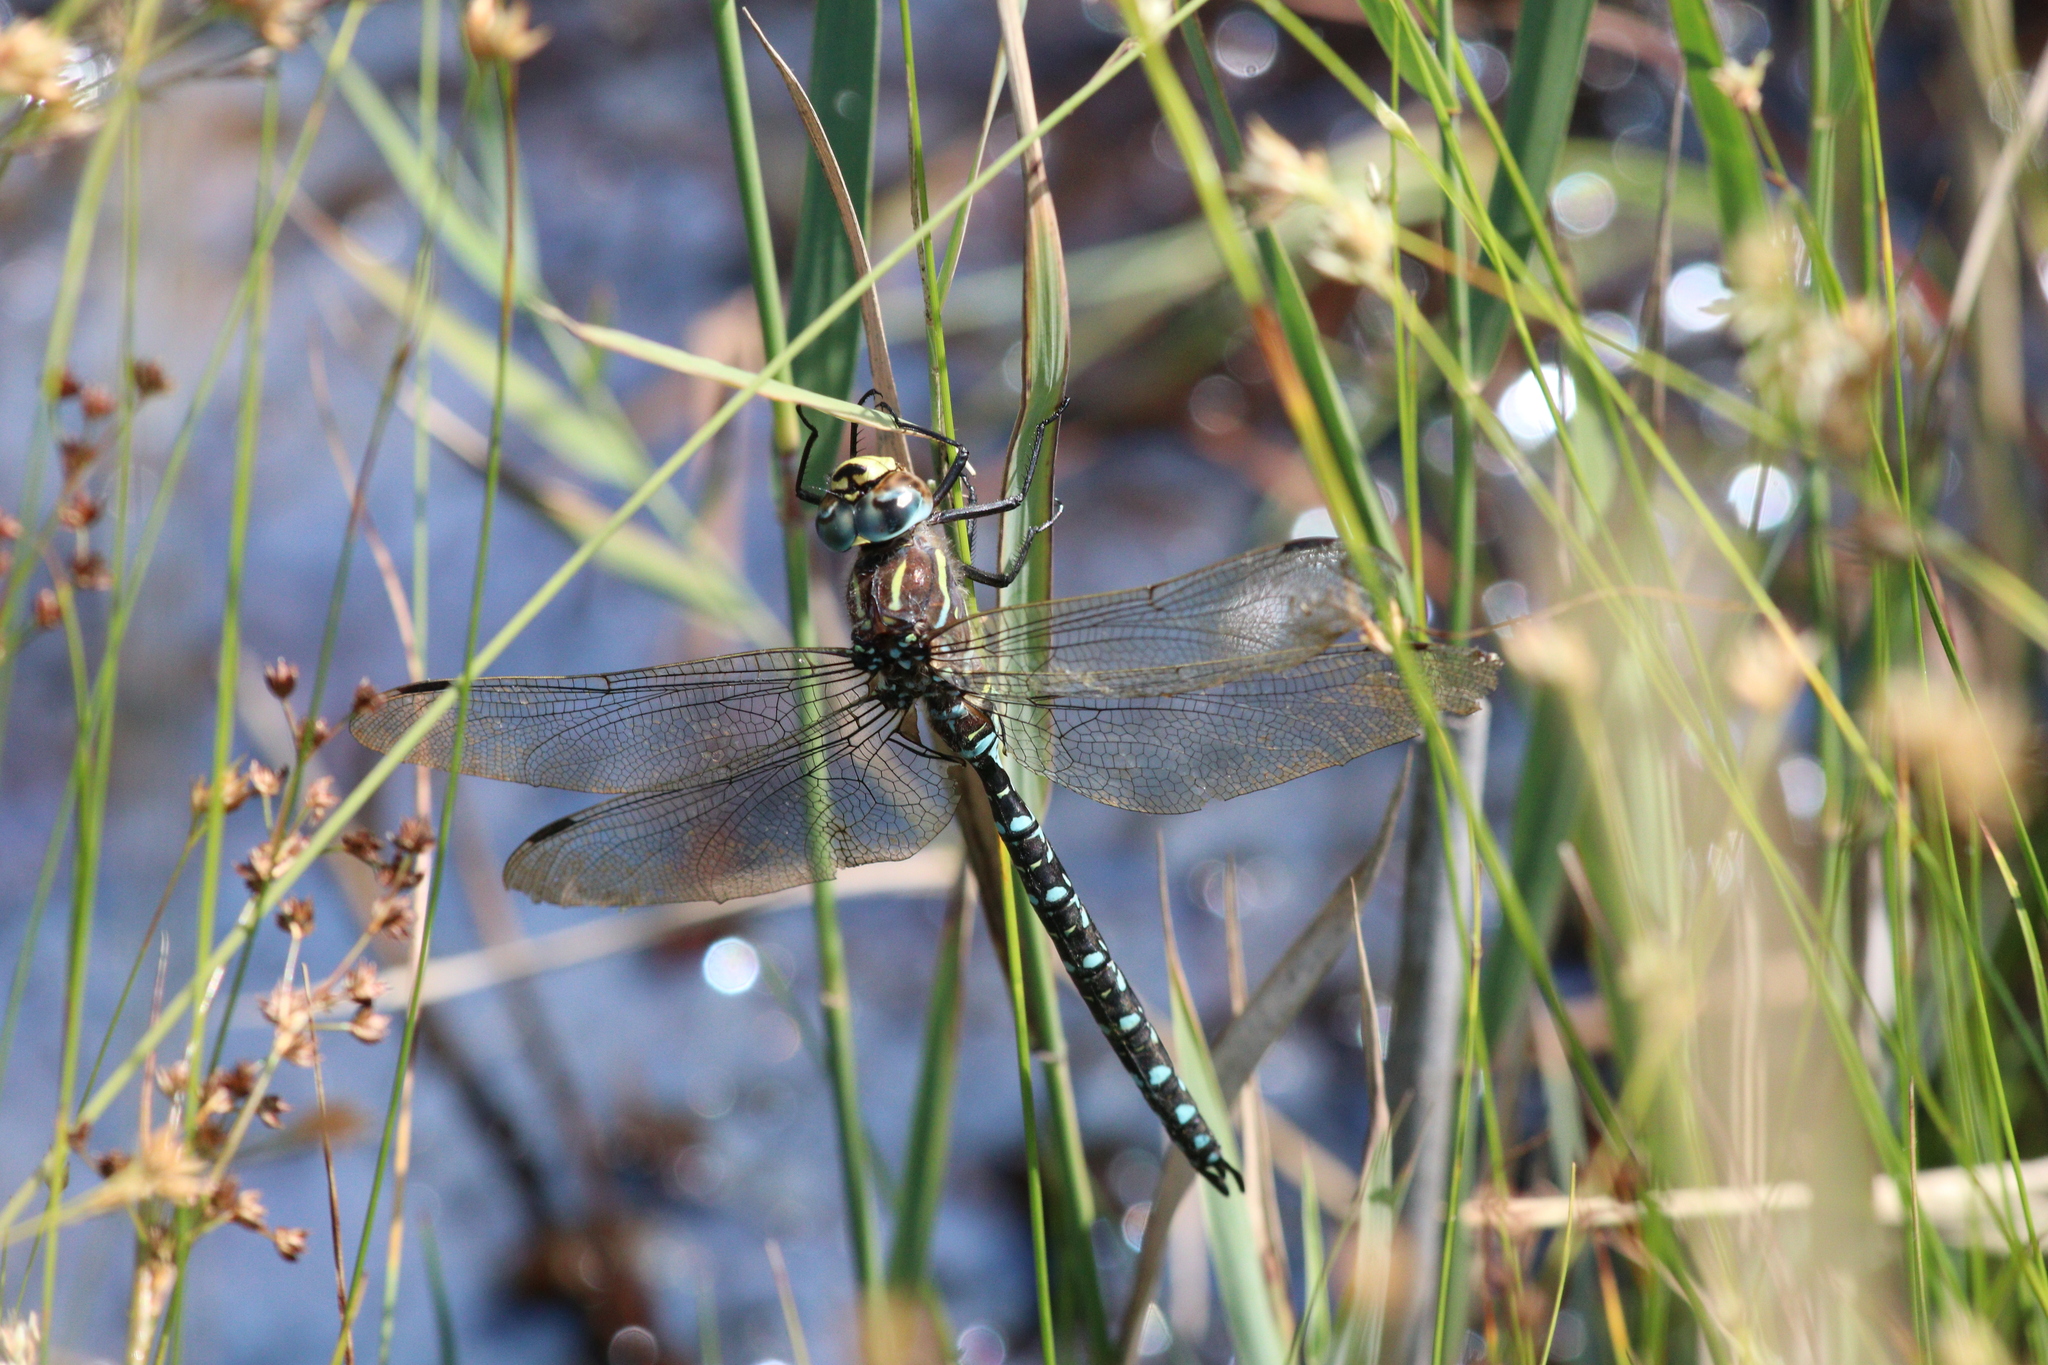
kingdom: Animalia
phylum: Arthropoda
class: Insecta
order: Odonata
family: Aeshnidae
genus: Aeshna
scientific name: Aeshna juncea
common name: Moorland hawker
